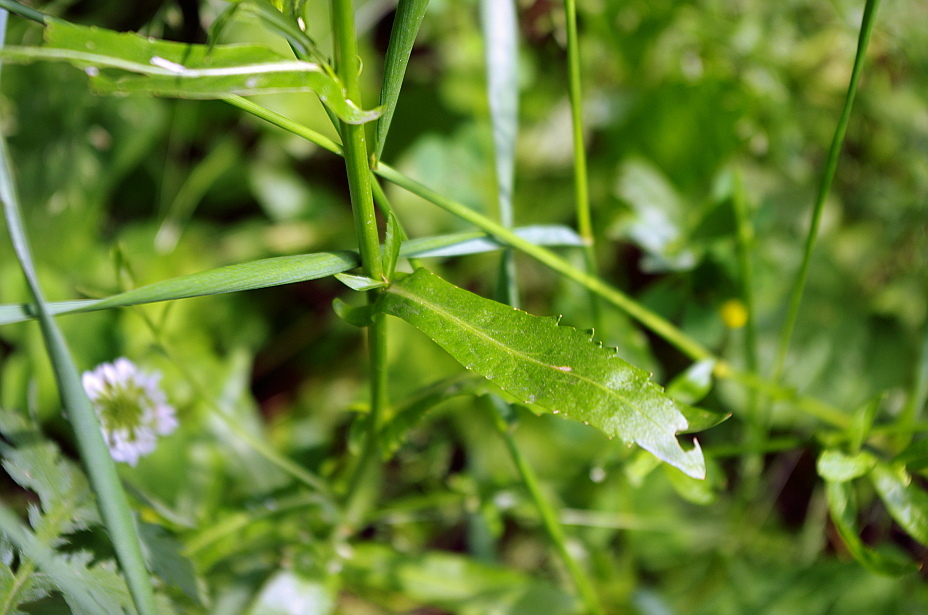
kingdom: Plantae
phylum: Tracheophyta
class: Magnoliopsida
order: Brassicales
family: Brassicaceae
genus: Rorippa
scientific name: Rorippa austriaca
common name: Austrian yellow-cress
